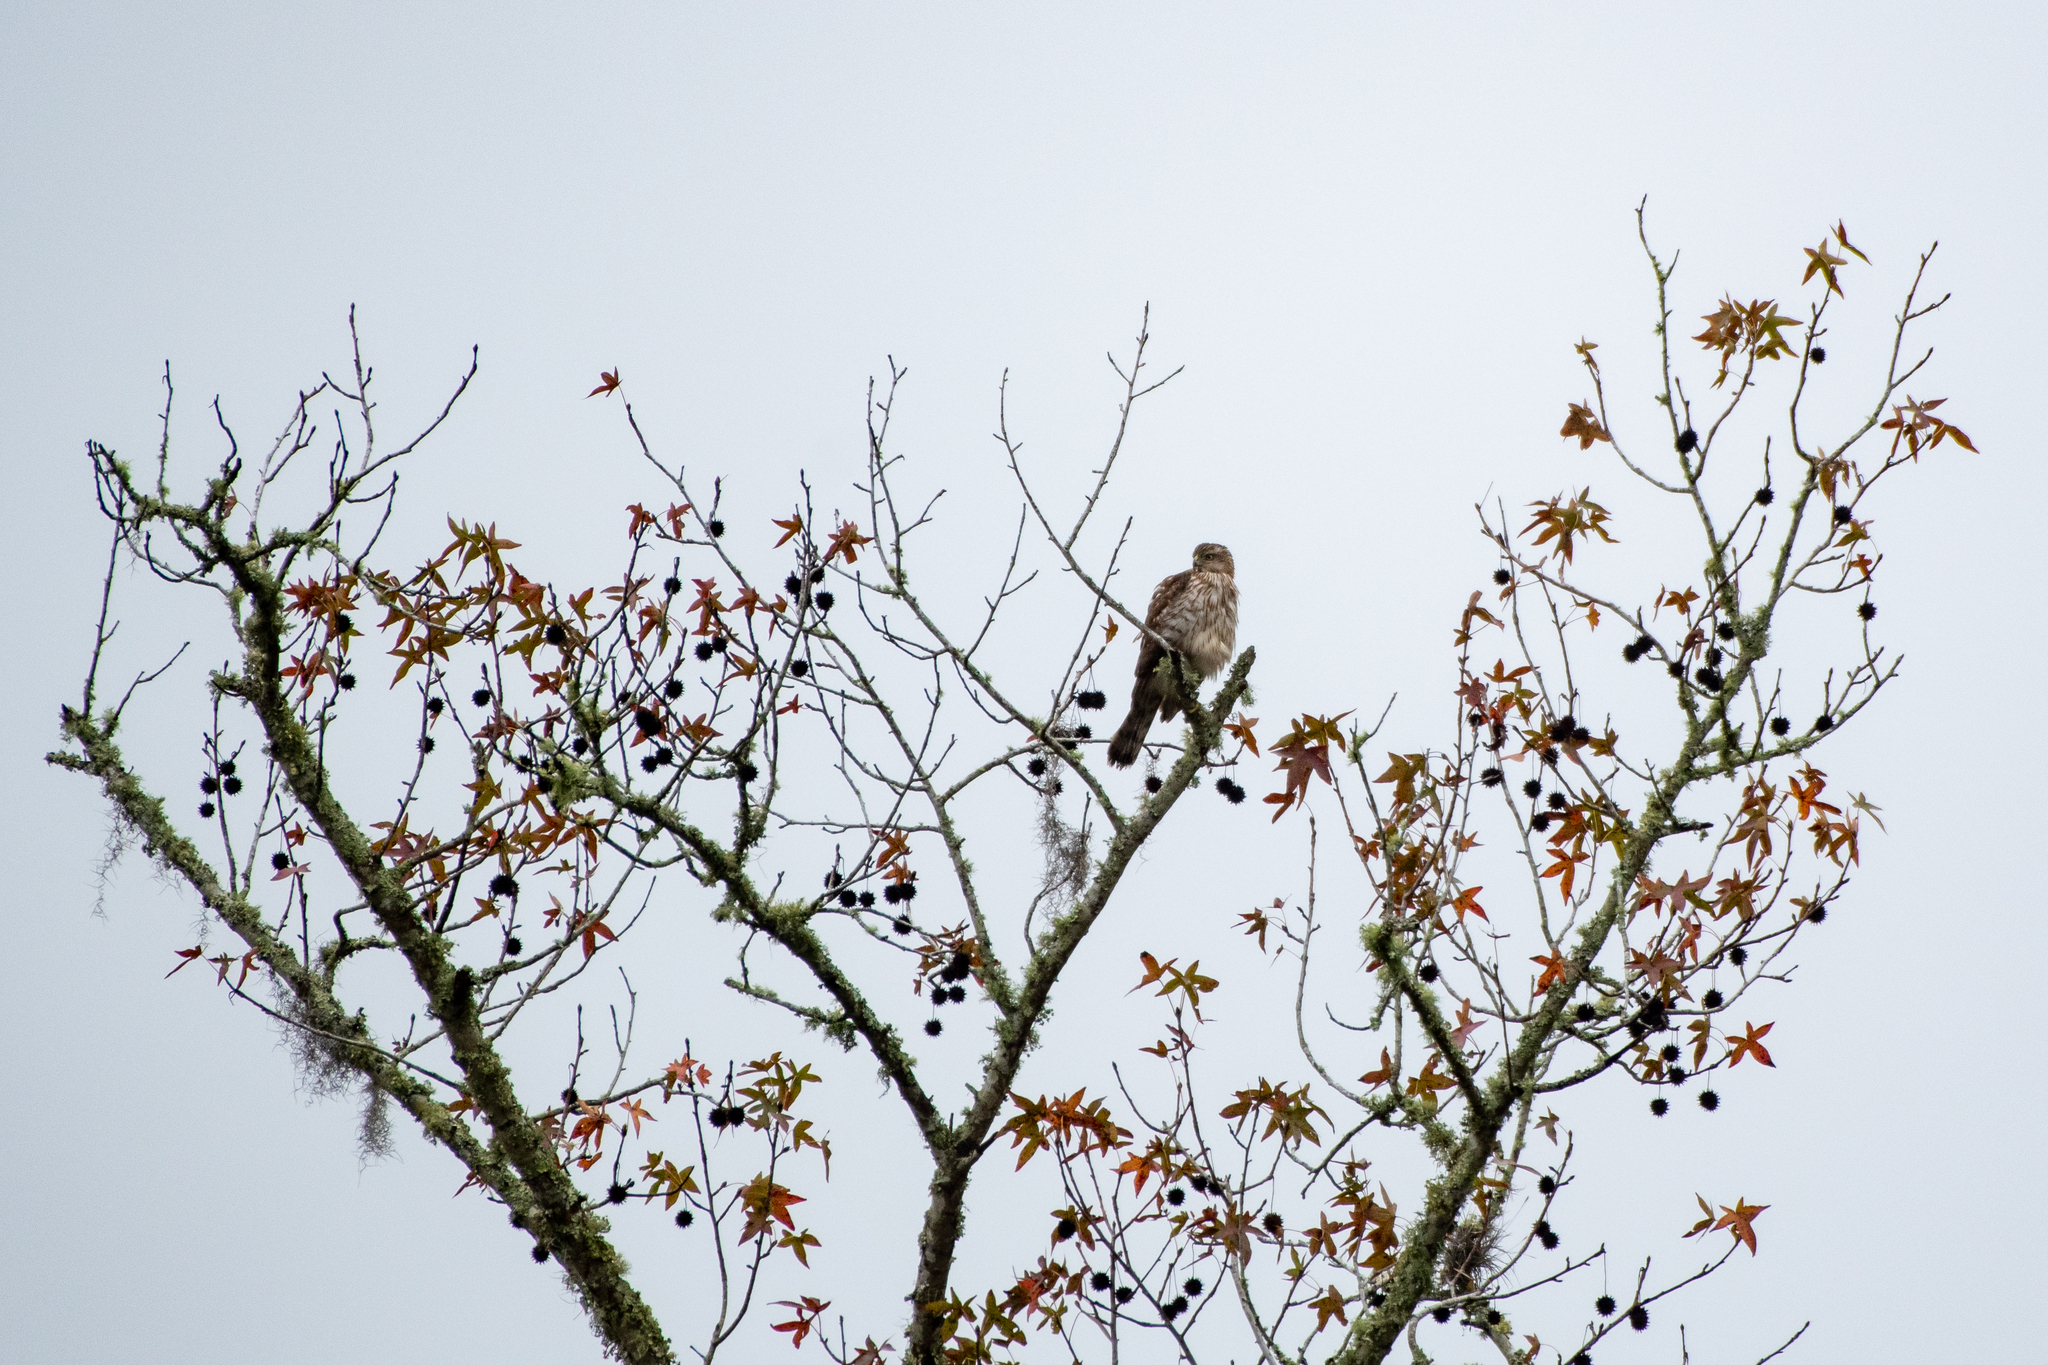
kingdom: Animalia
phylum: Chordata
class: Aves
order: Accipitriformes
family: Accipitridae
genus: Accipiter
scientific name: Accipiter cooperii
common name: Cooper's hawk
